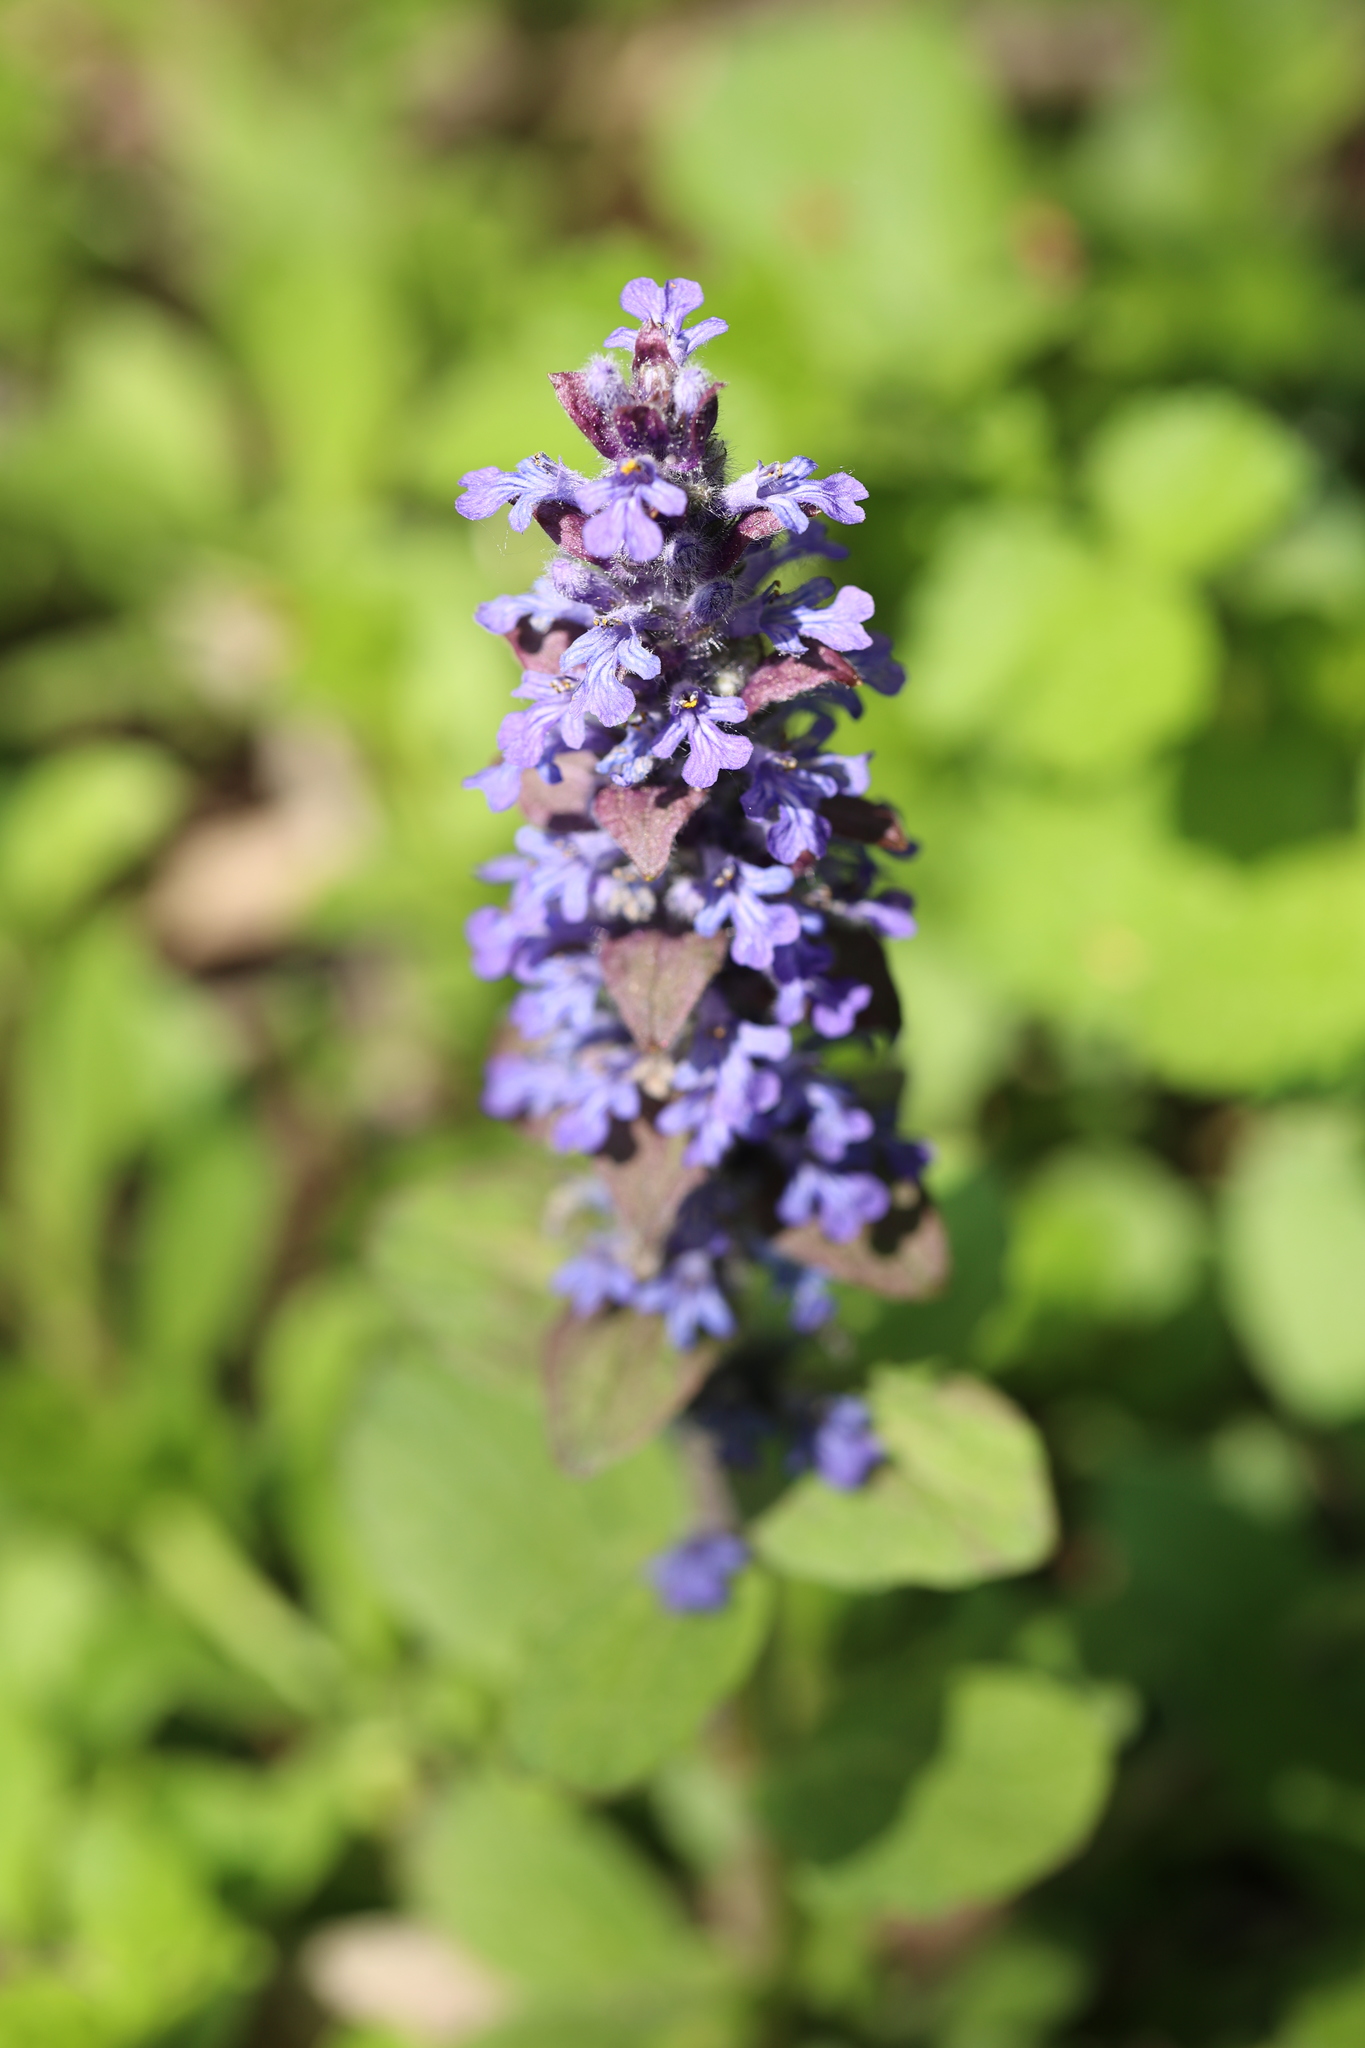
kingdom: Plantae
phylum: Tracheophyta
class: Magnoliopsida
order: Lamiales
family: Lamiaceae
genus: Ajuga
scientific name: Ajuga reptans
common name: Bugle
